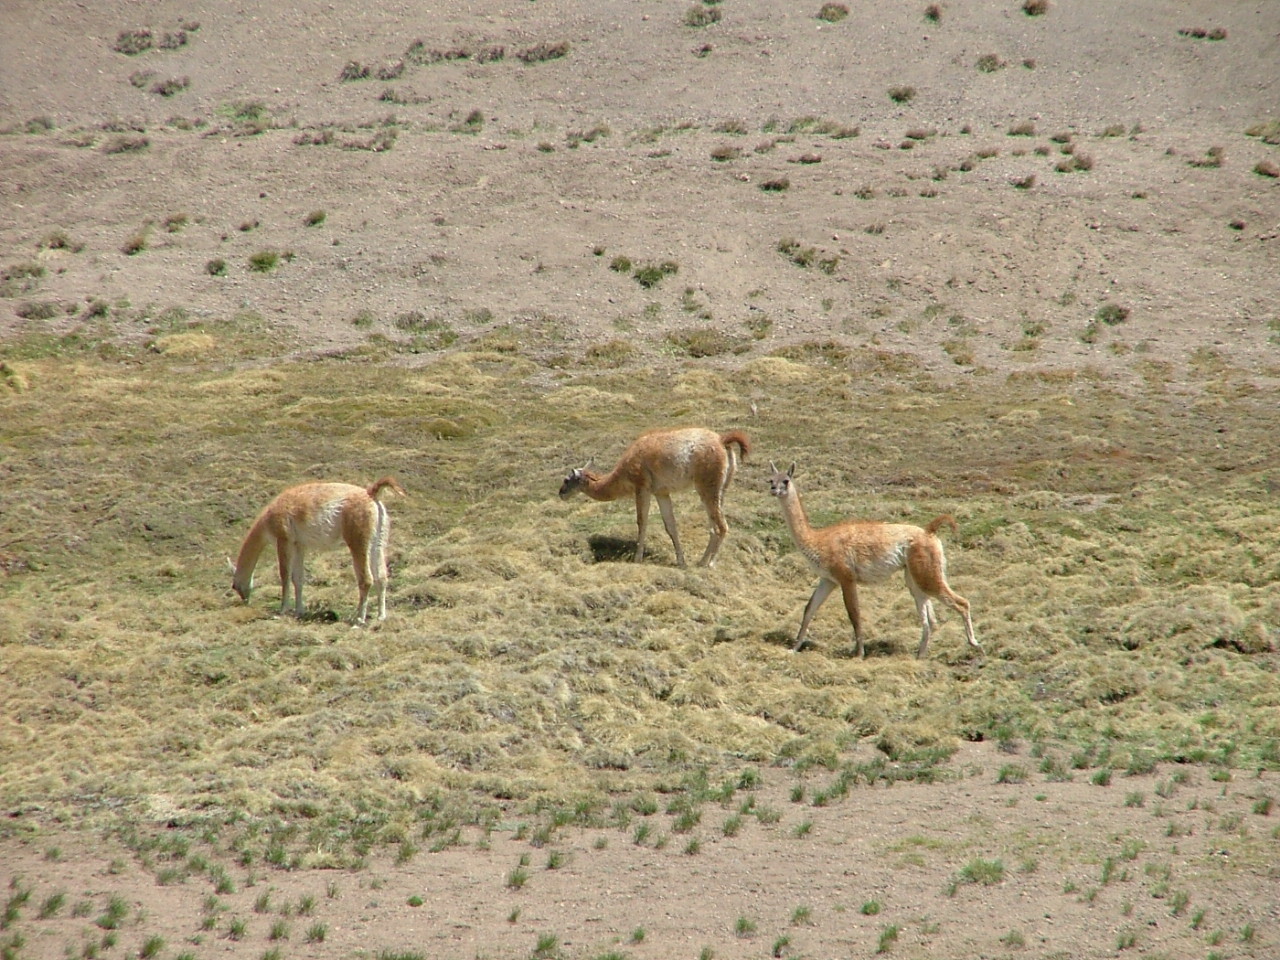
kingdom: Animalia
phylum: Chordata
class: Mammalia
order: Artiodactyla
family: Camelidae
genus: Lama
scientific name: Lama glama
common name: Llama
